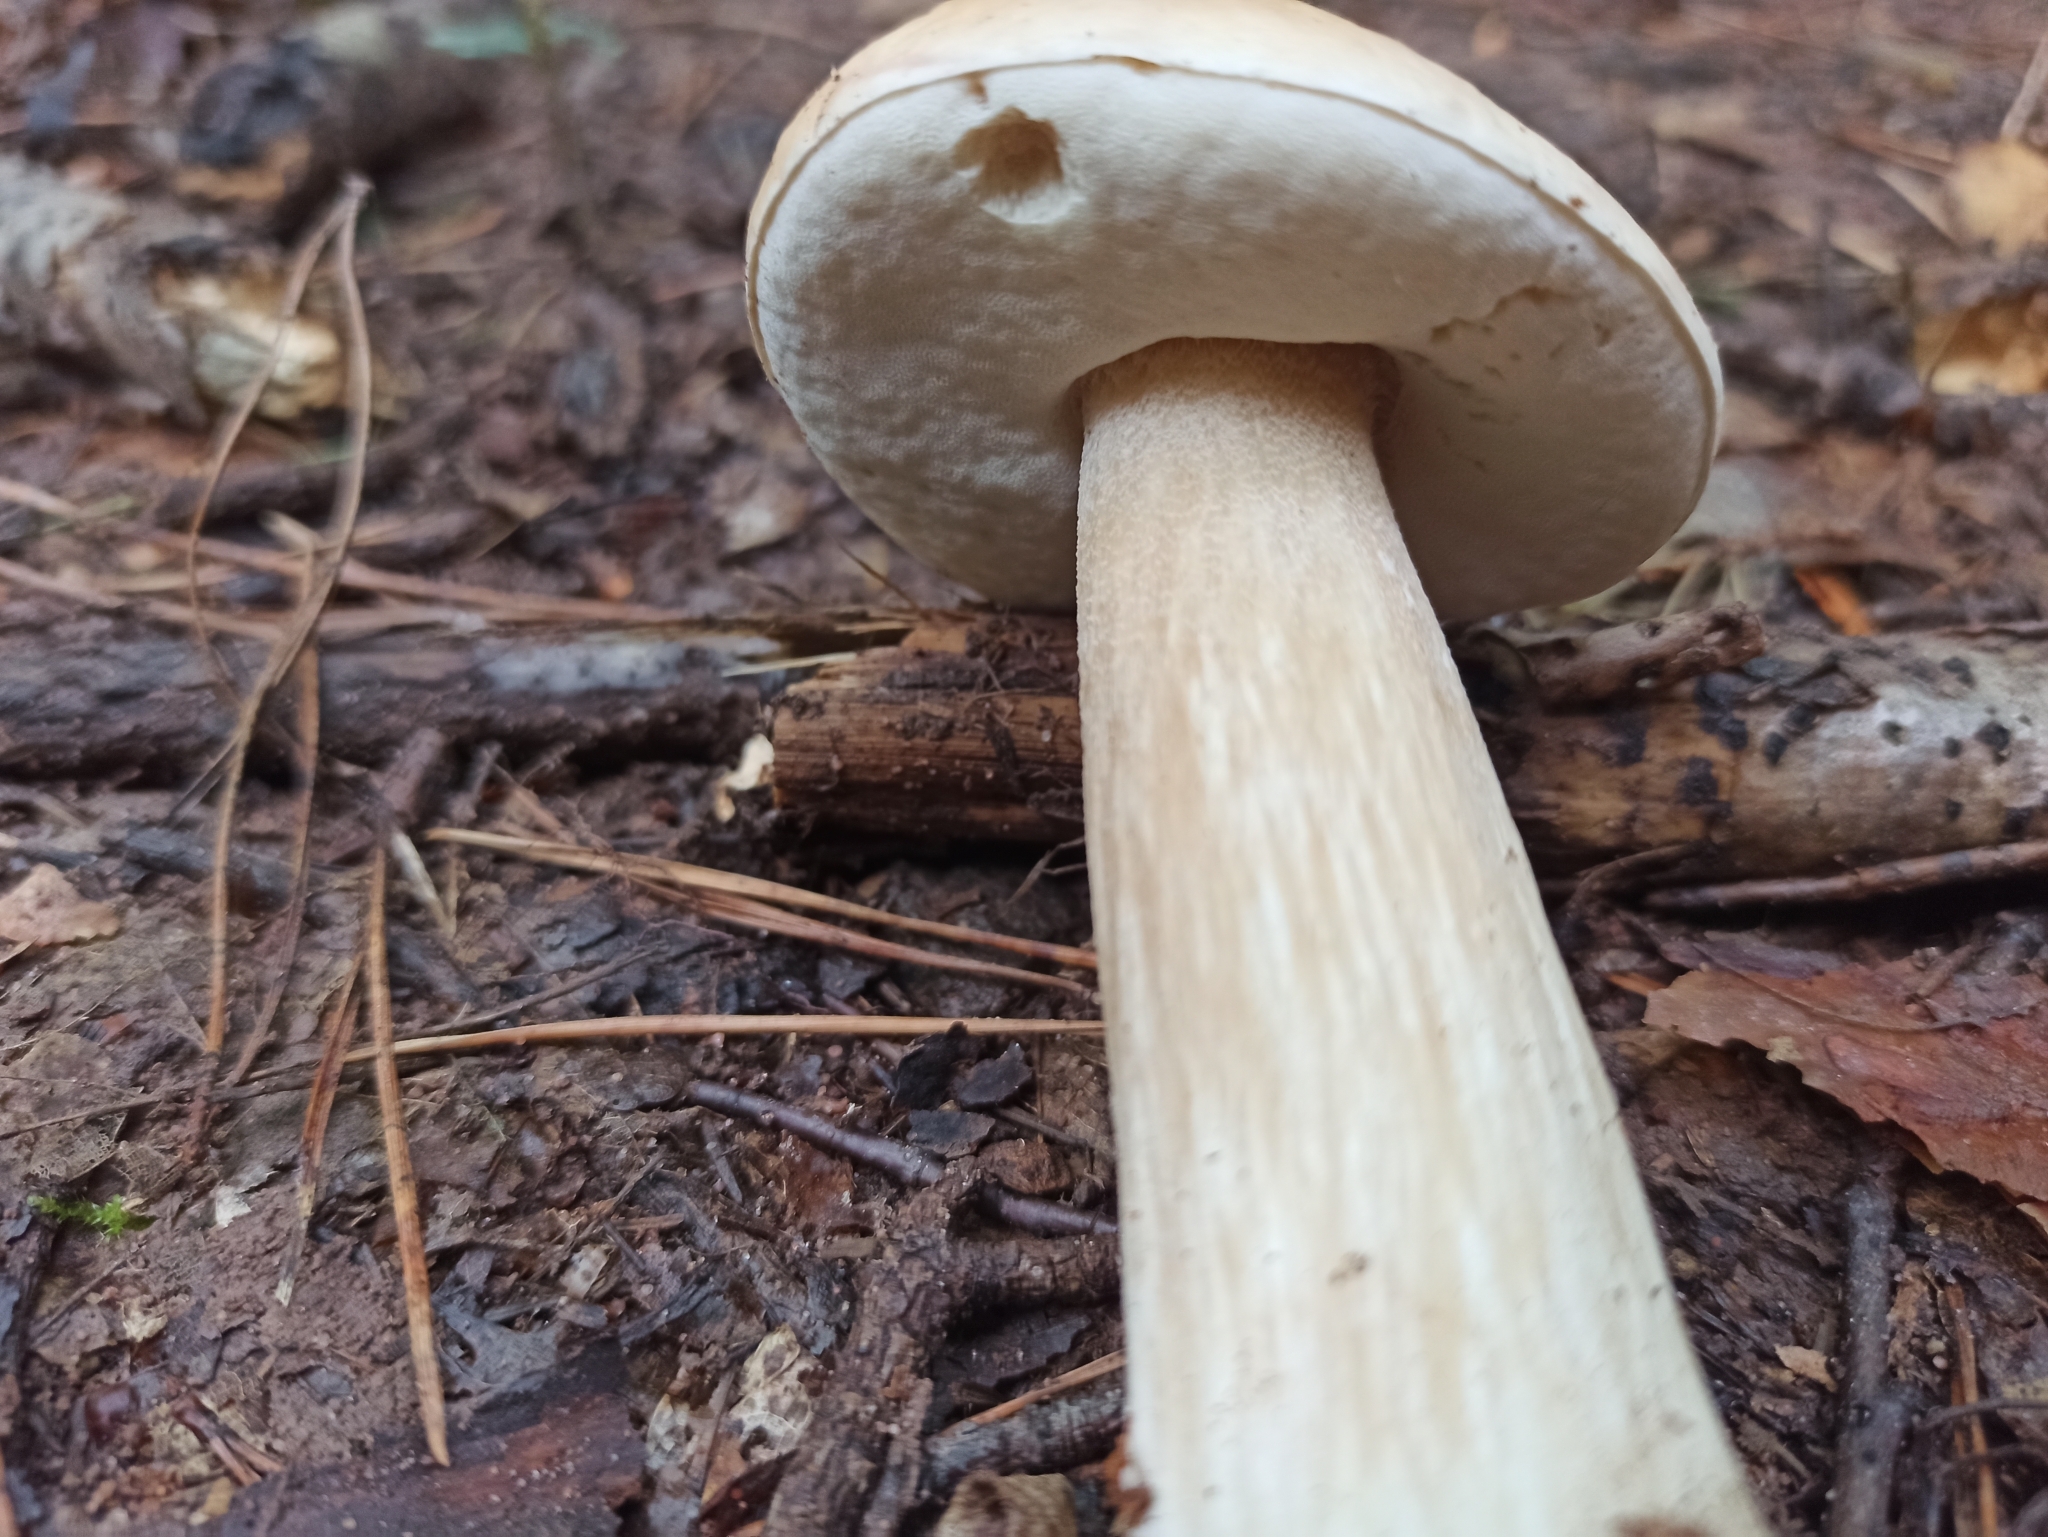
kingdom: Fungi
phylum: Basidiomycota
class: Agaricomycetes
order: Boletales
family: Boletaceae
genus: Boletus
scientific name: Boletus edulis
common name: Cep
